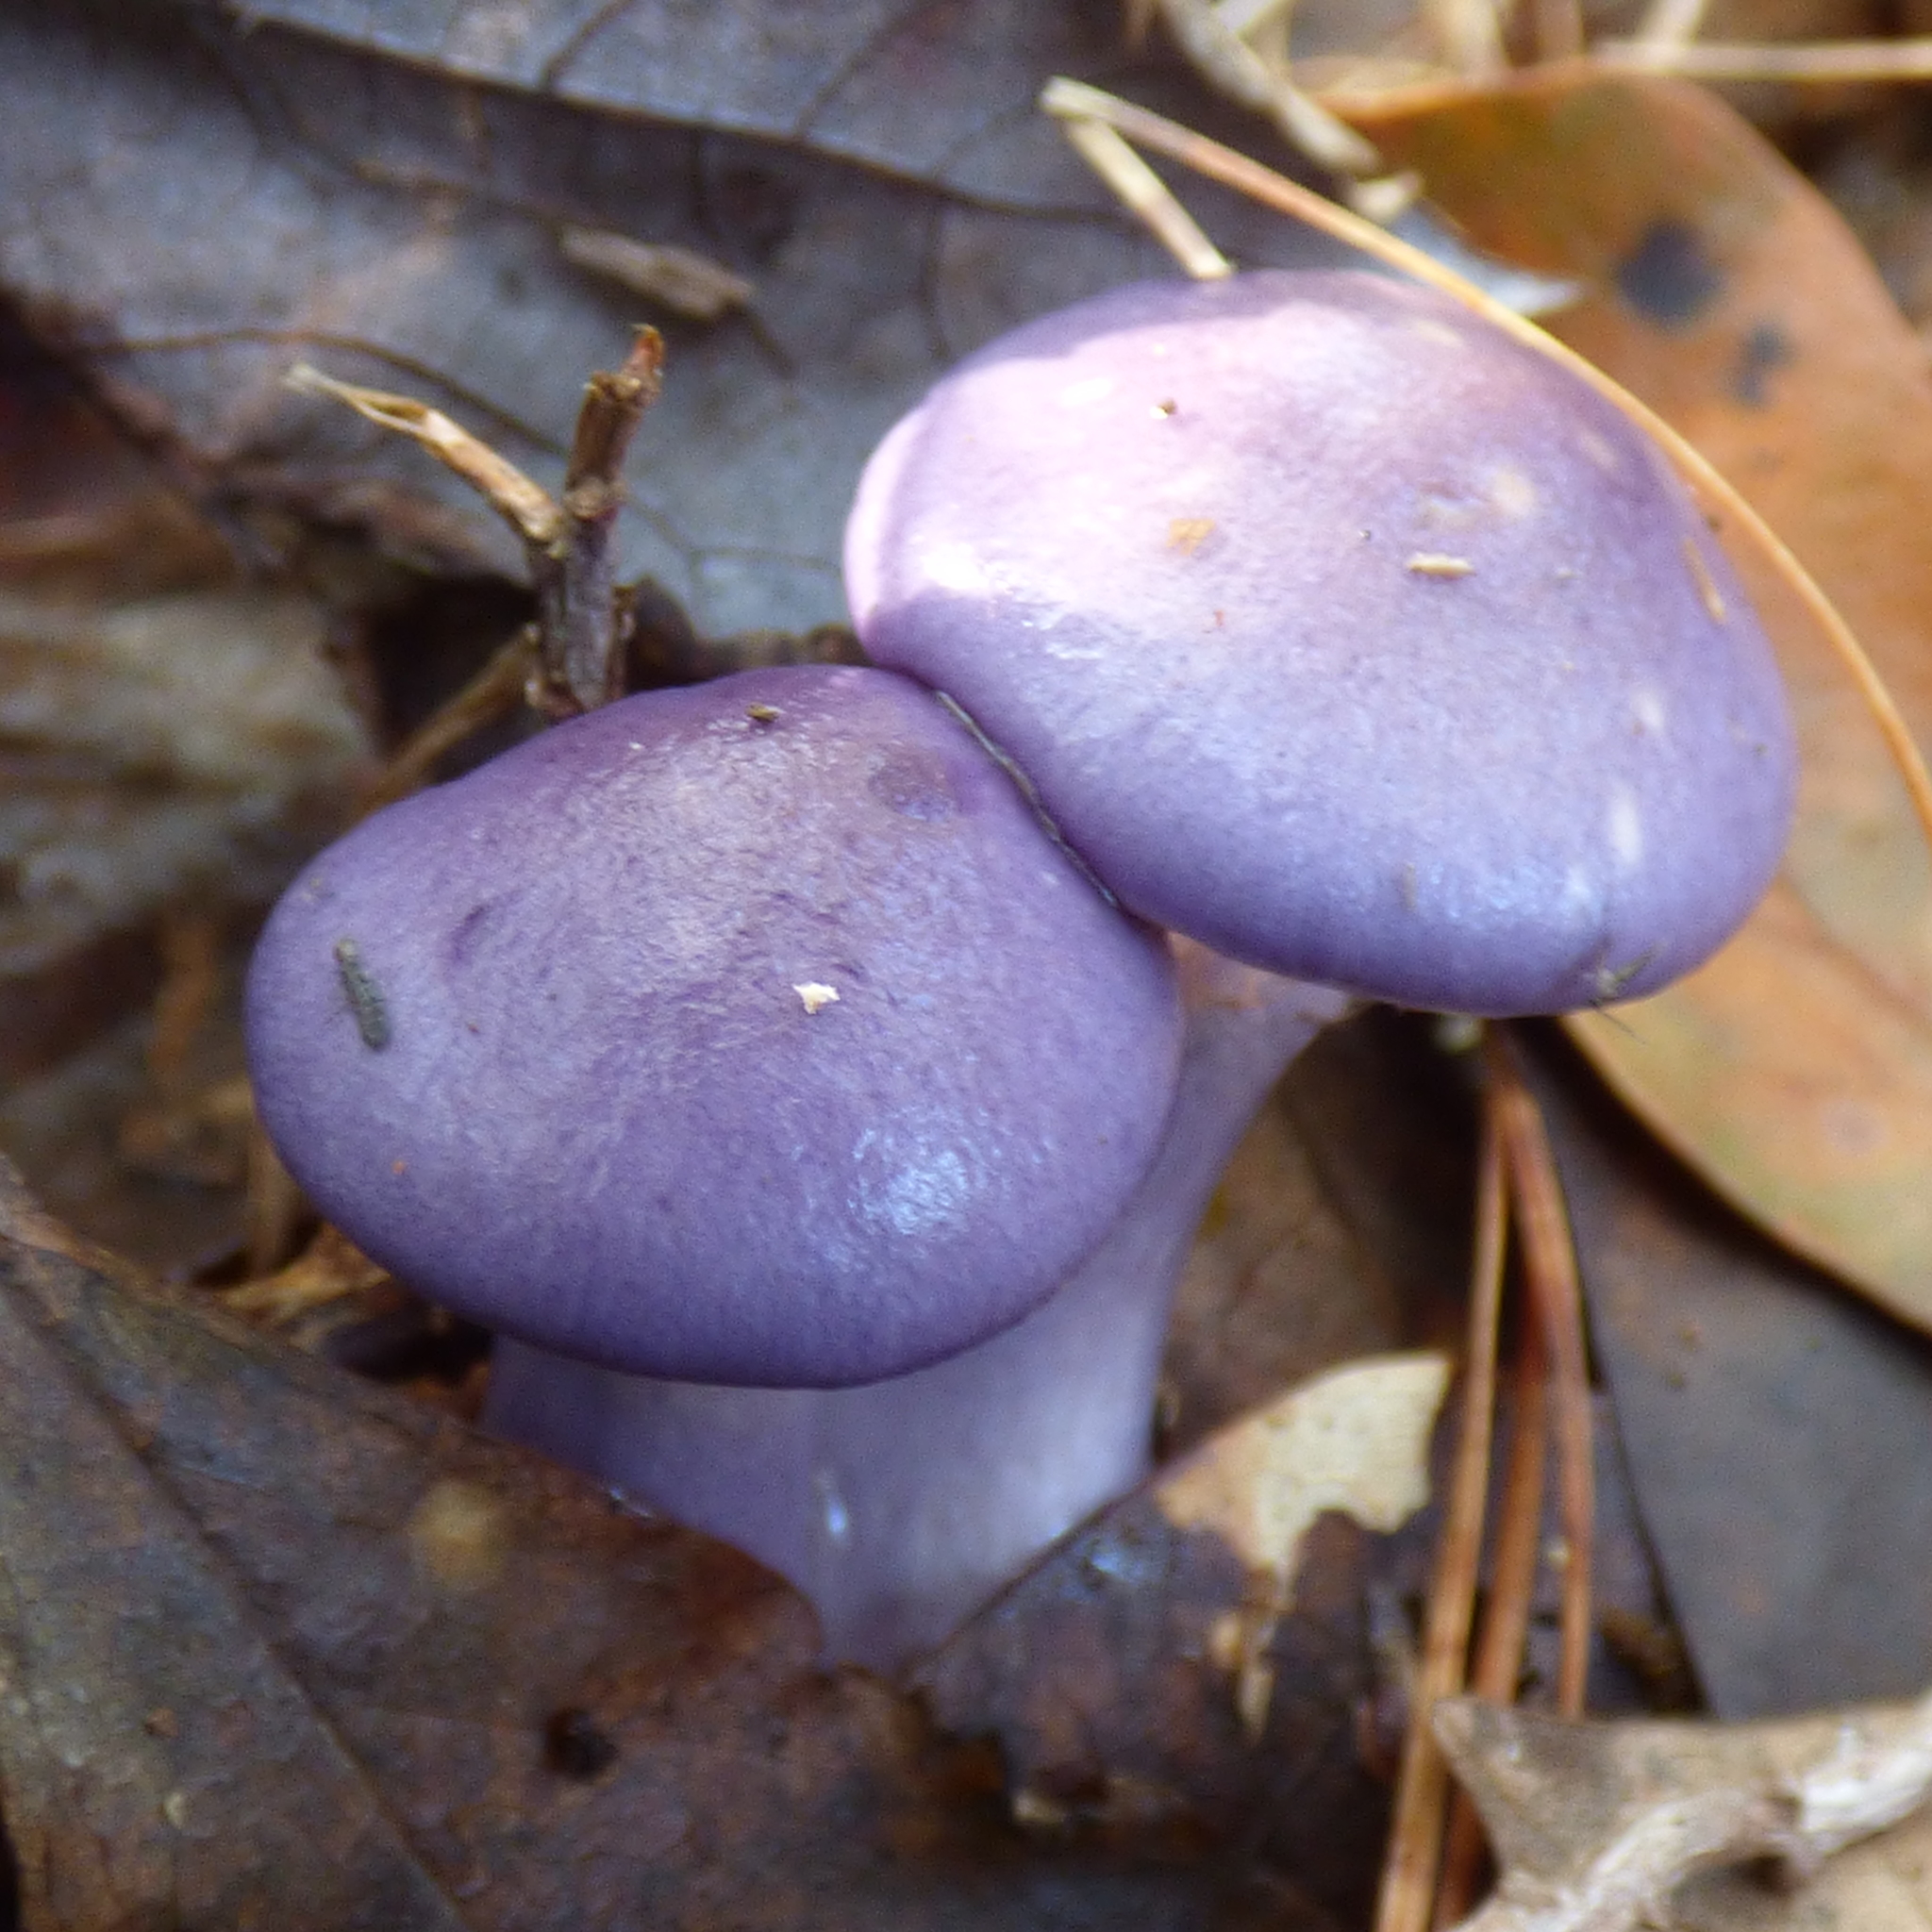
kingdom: Fungi
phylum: Basidiomycota
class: Agaricomycetes
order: Agaricales
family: Cortinariaceae
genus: Cortinarius
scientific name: Cortinarius iodes
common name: Viscid violet cort
